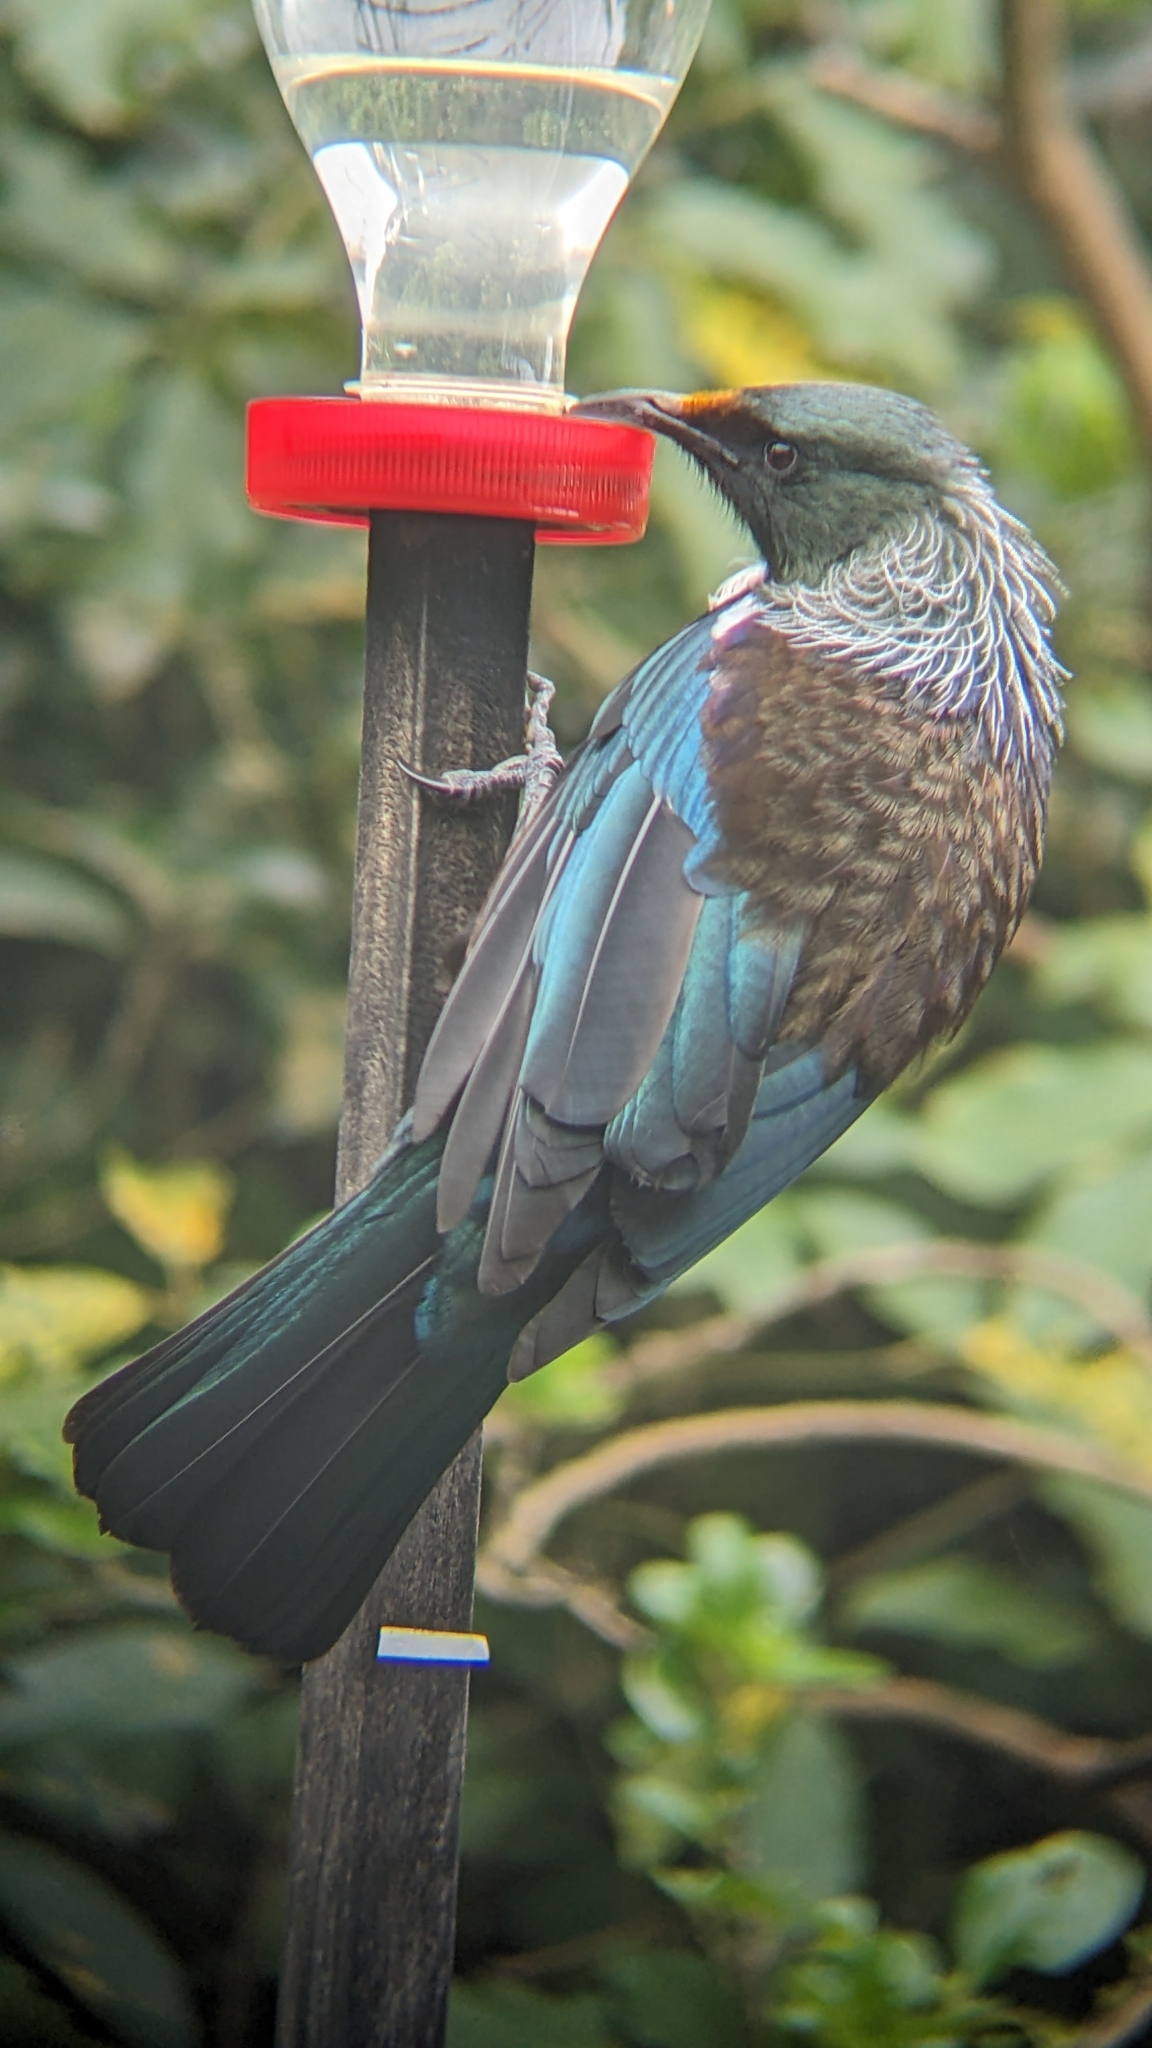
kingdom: Animalia
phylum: Chordata
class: Aves
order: Passeriformes
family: Meliphagidae
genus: Prosthemadera
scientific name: Prosthemadera novaeseelandiae
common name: Tui
